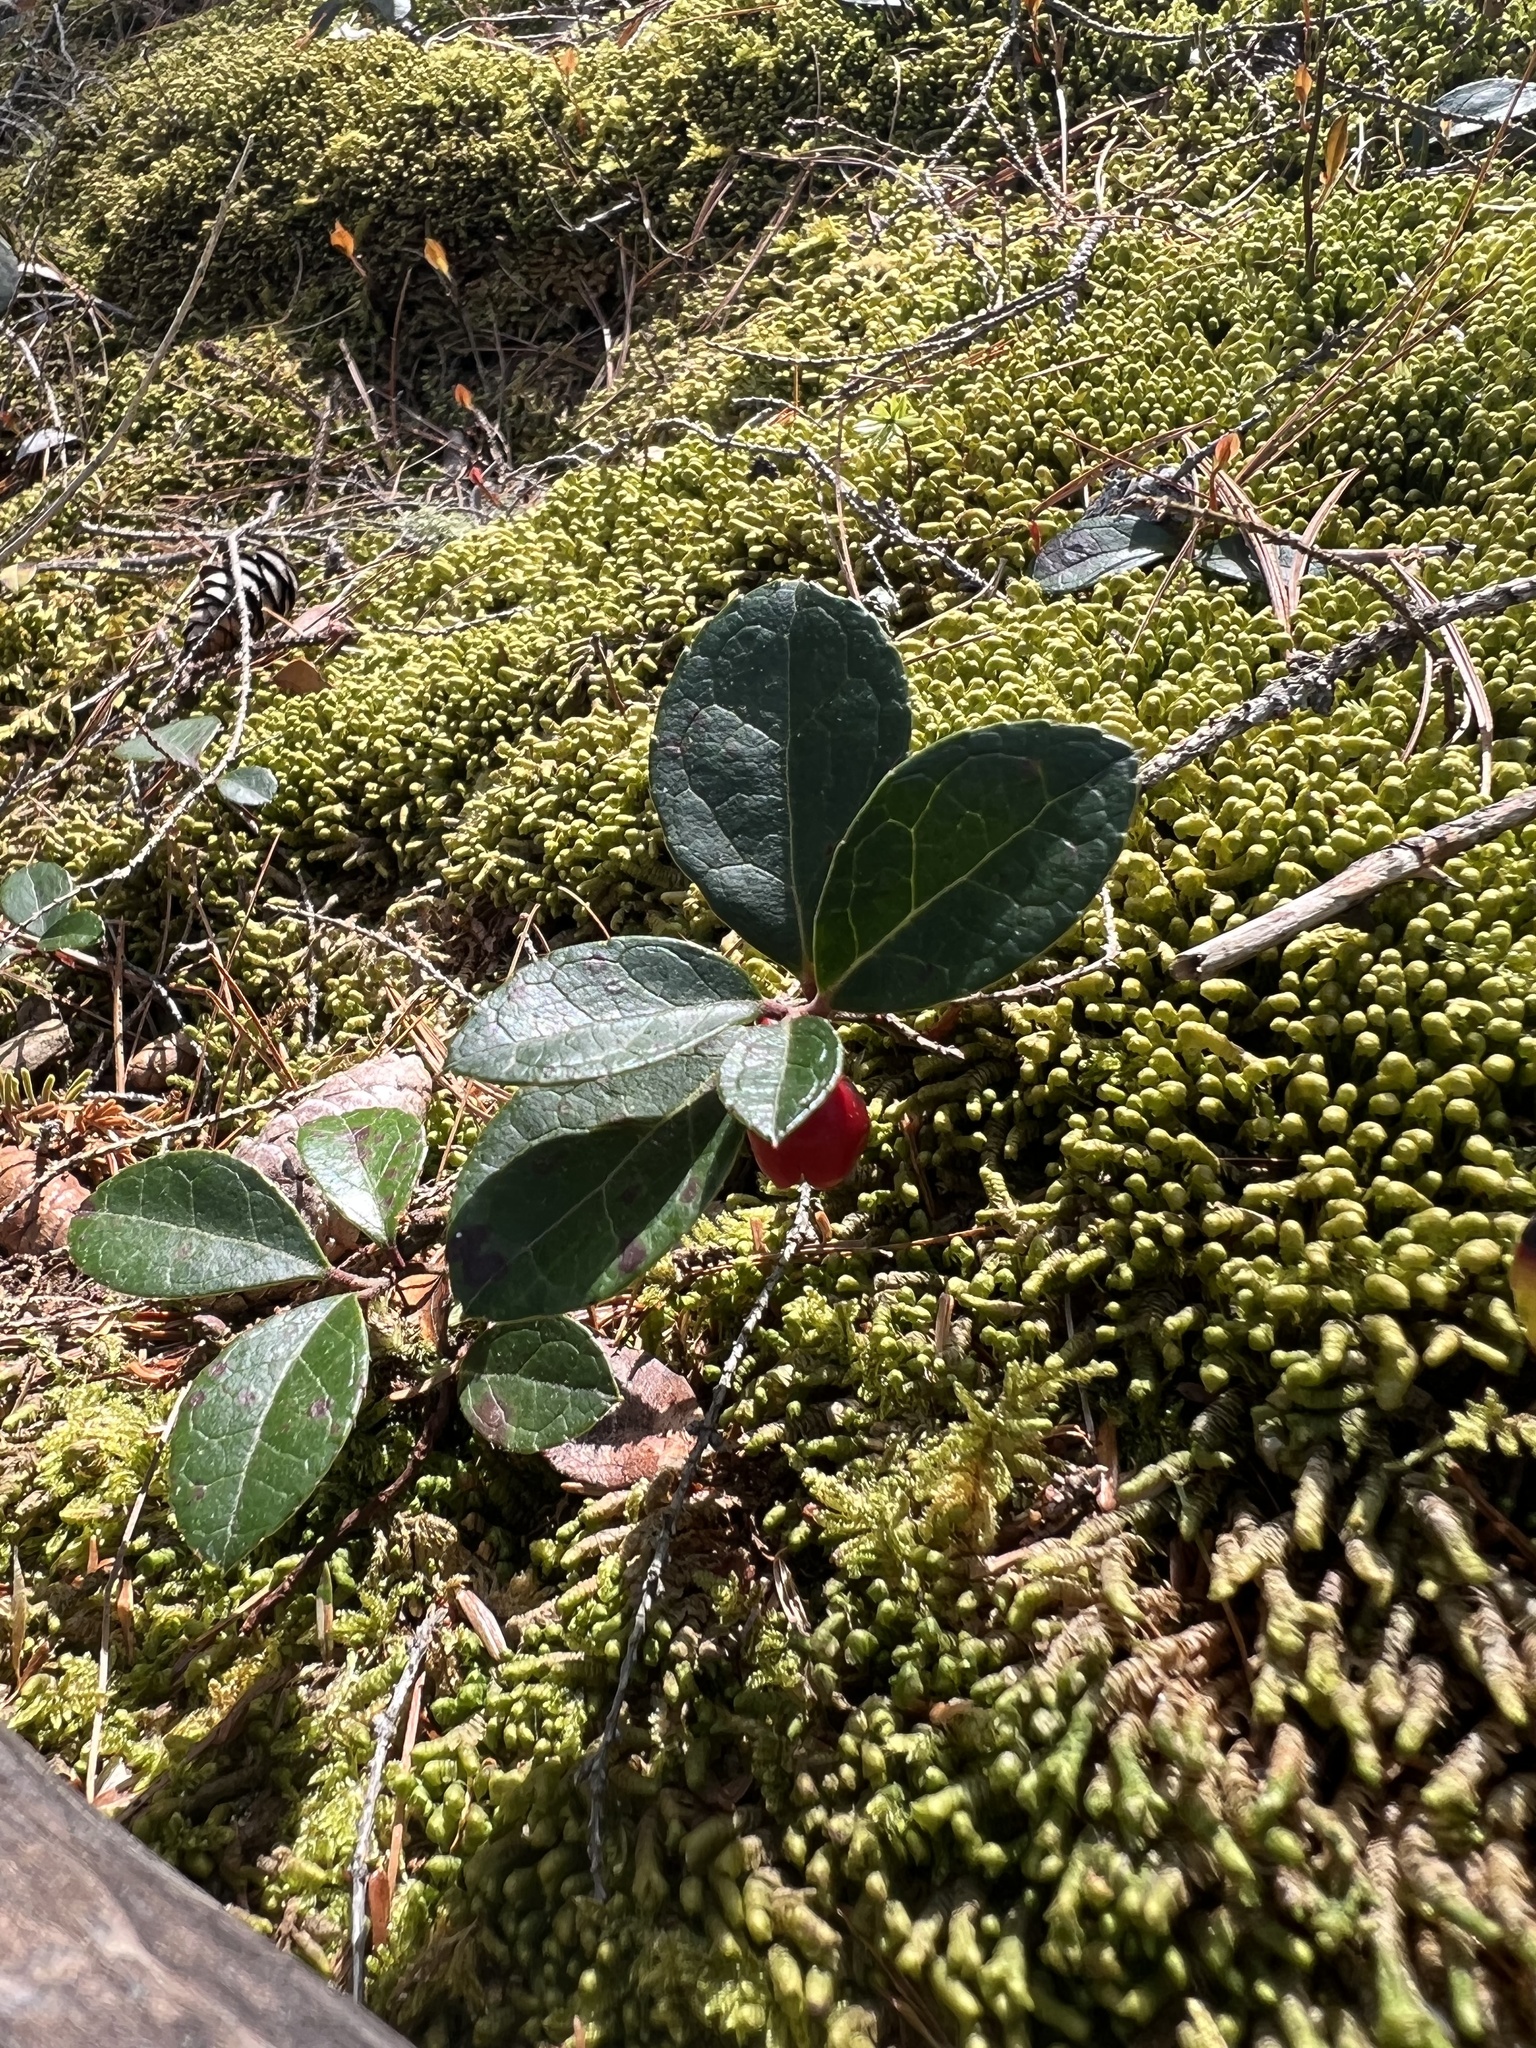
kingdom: Plantae
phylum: Tracheophyta
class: Magnoliopsida
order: Ericales
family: Ericaceae
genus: Gaultheria
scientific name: Gaultheria procumbens
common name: Checkerberry
